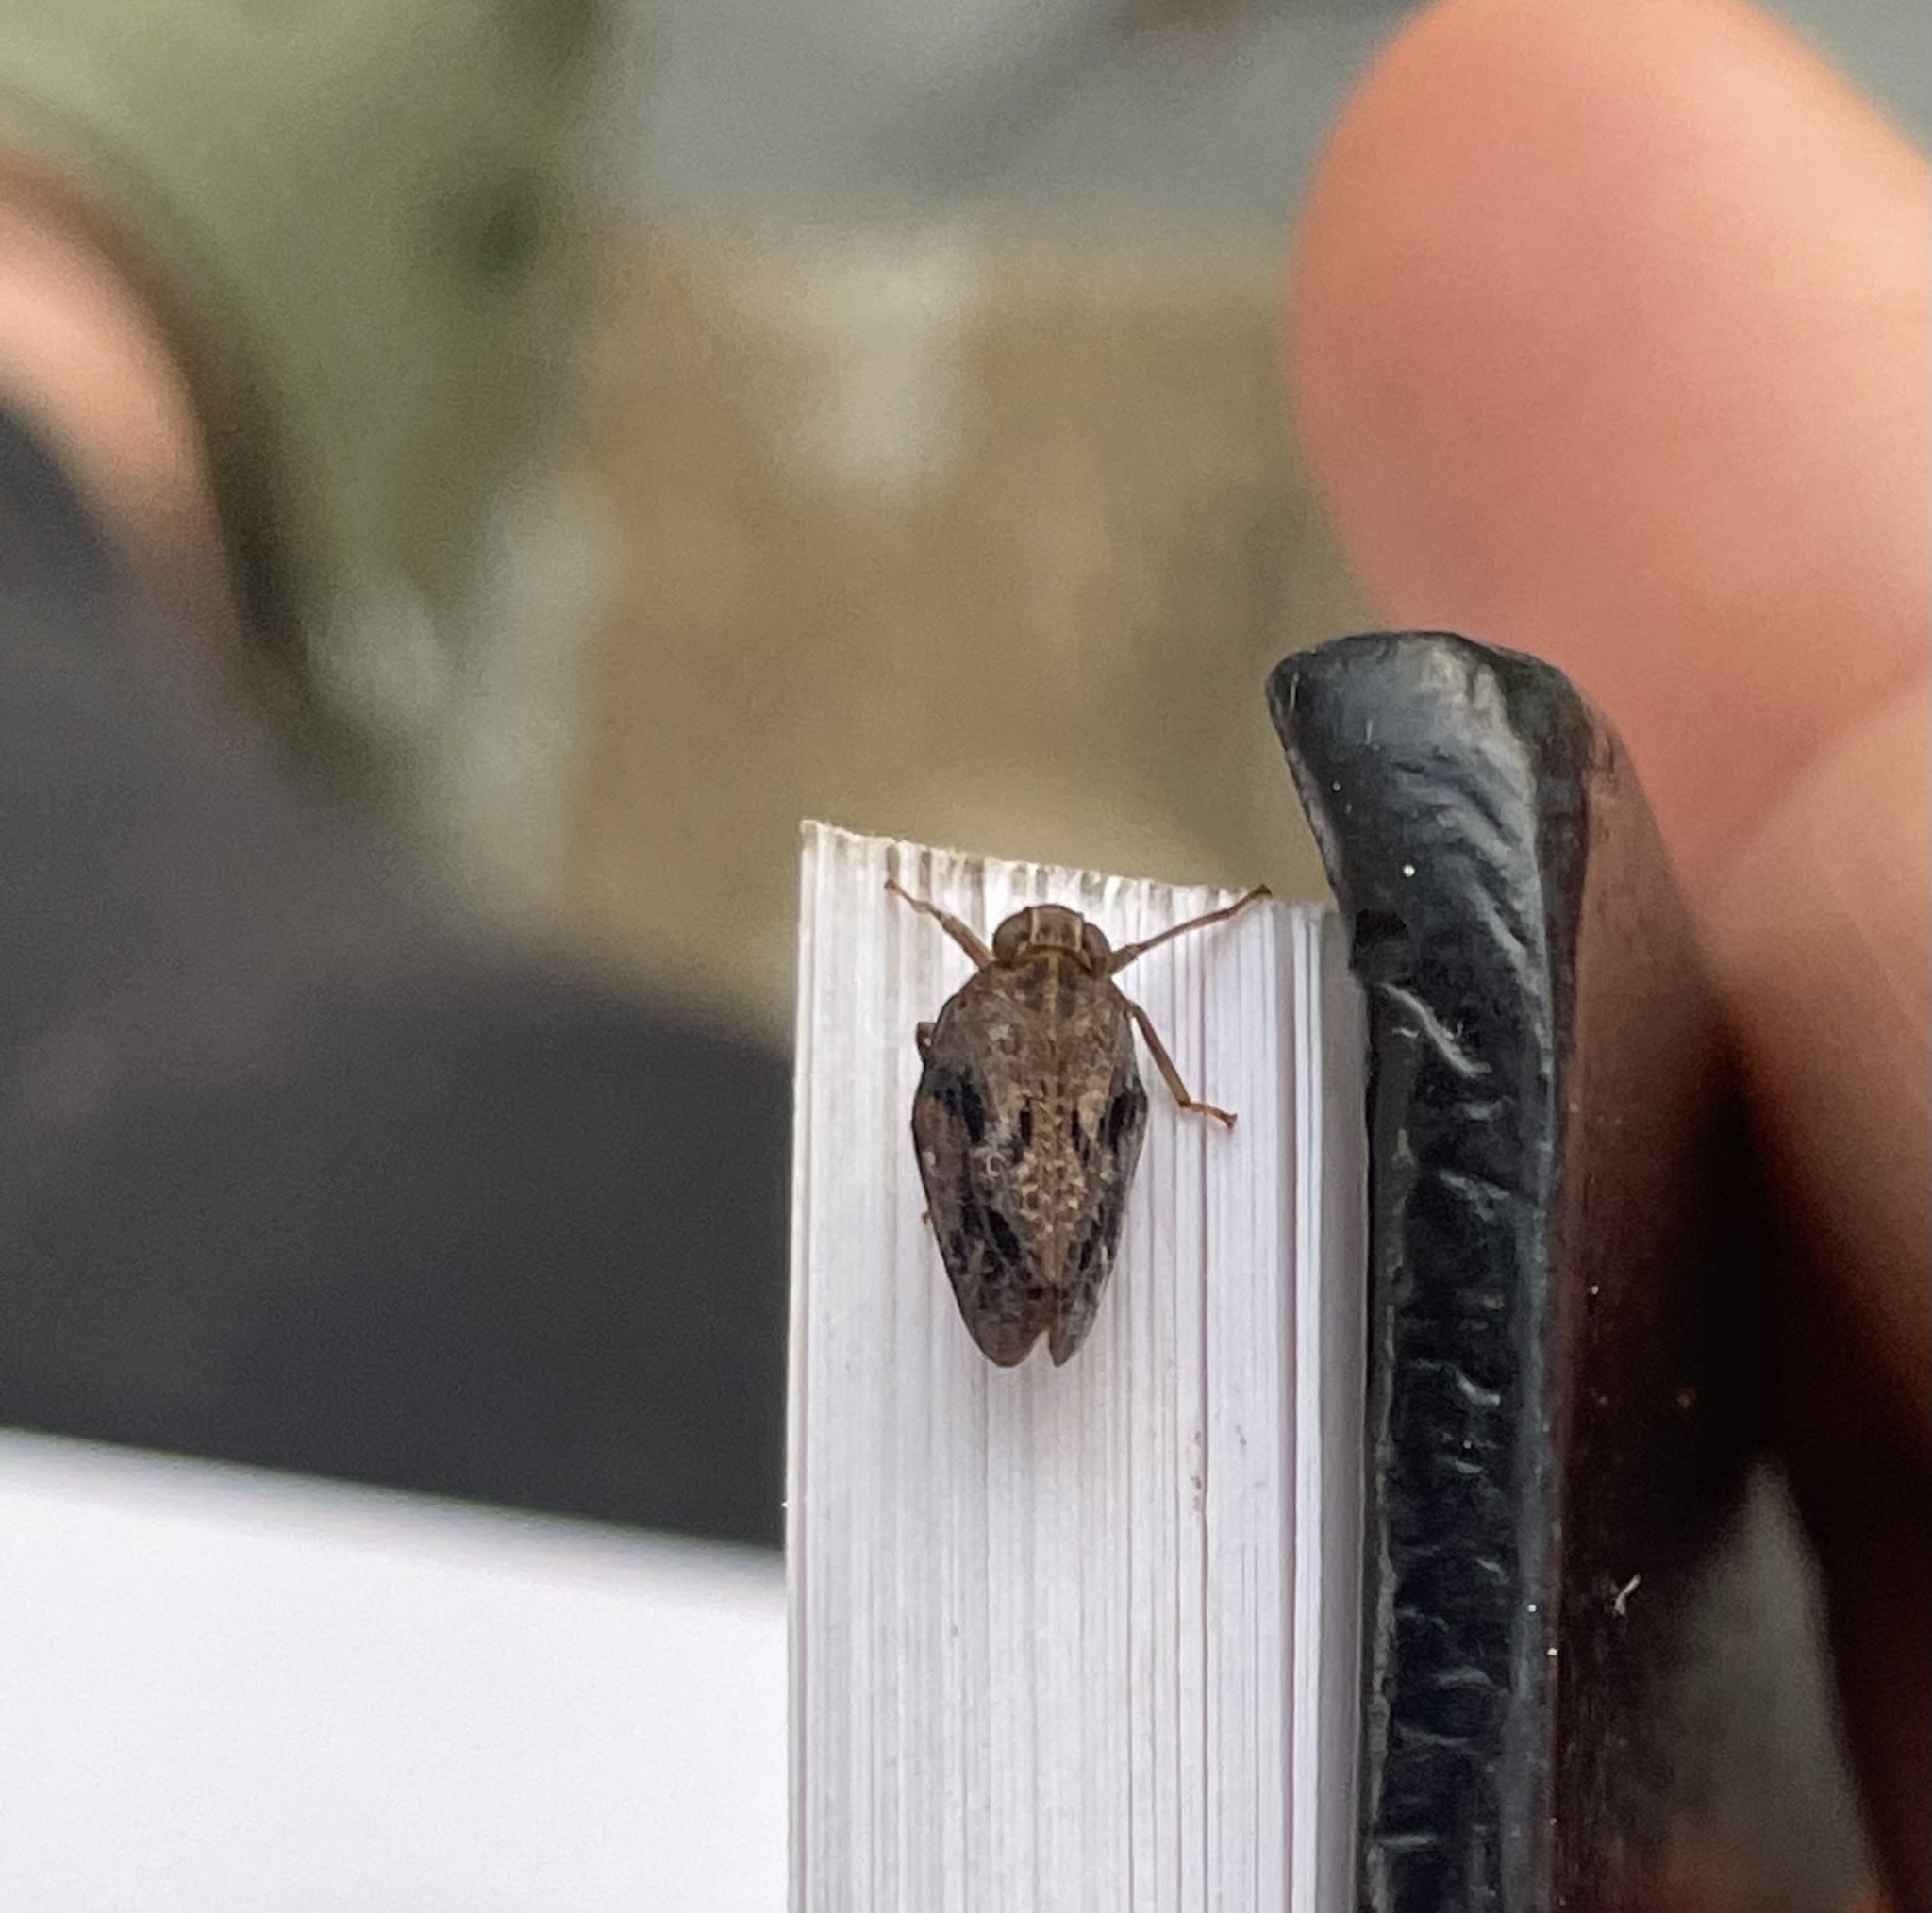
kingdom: Animalia
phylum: Arthropoda
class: Insecta
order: Hemiptera
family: Issidae
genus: Thionia
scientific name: Thionia bullata
